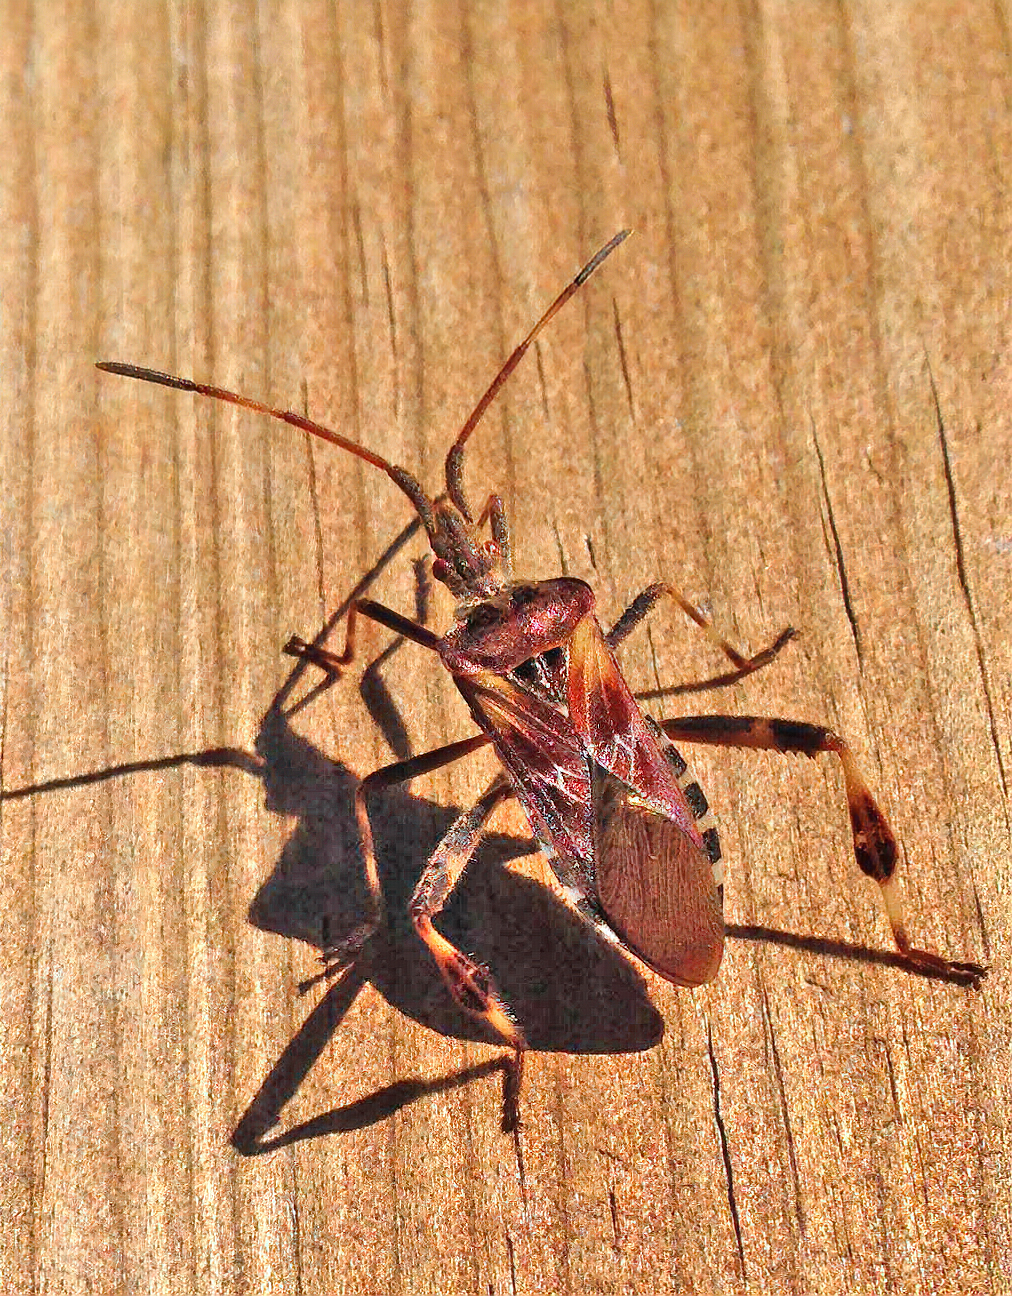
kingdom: Animalia
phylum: Arthropoda
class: Insecta
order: Hemiptera
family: Coreidae
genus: Leptoglossus
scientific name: Leptoglossus occidentalis
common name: Western conifer-seed bug
